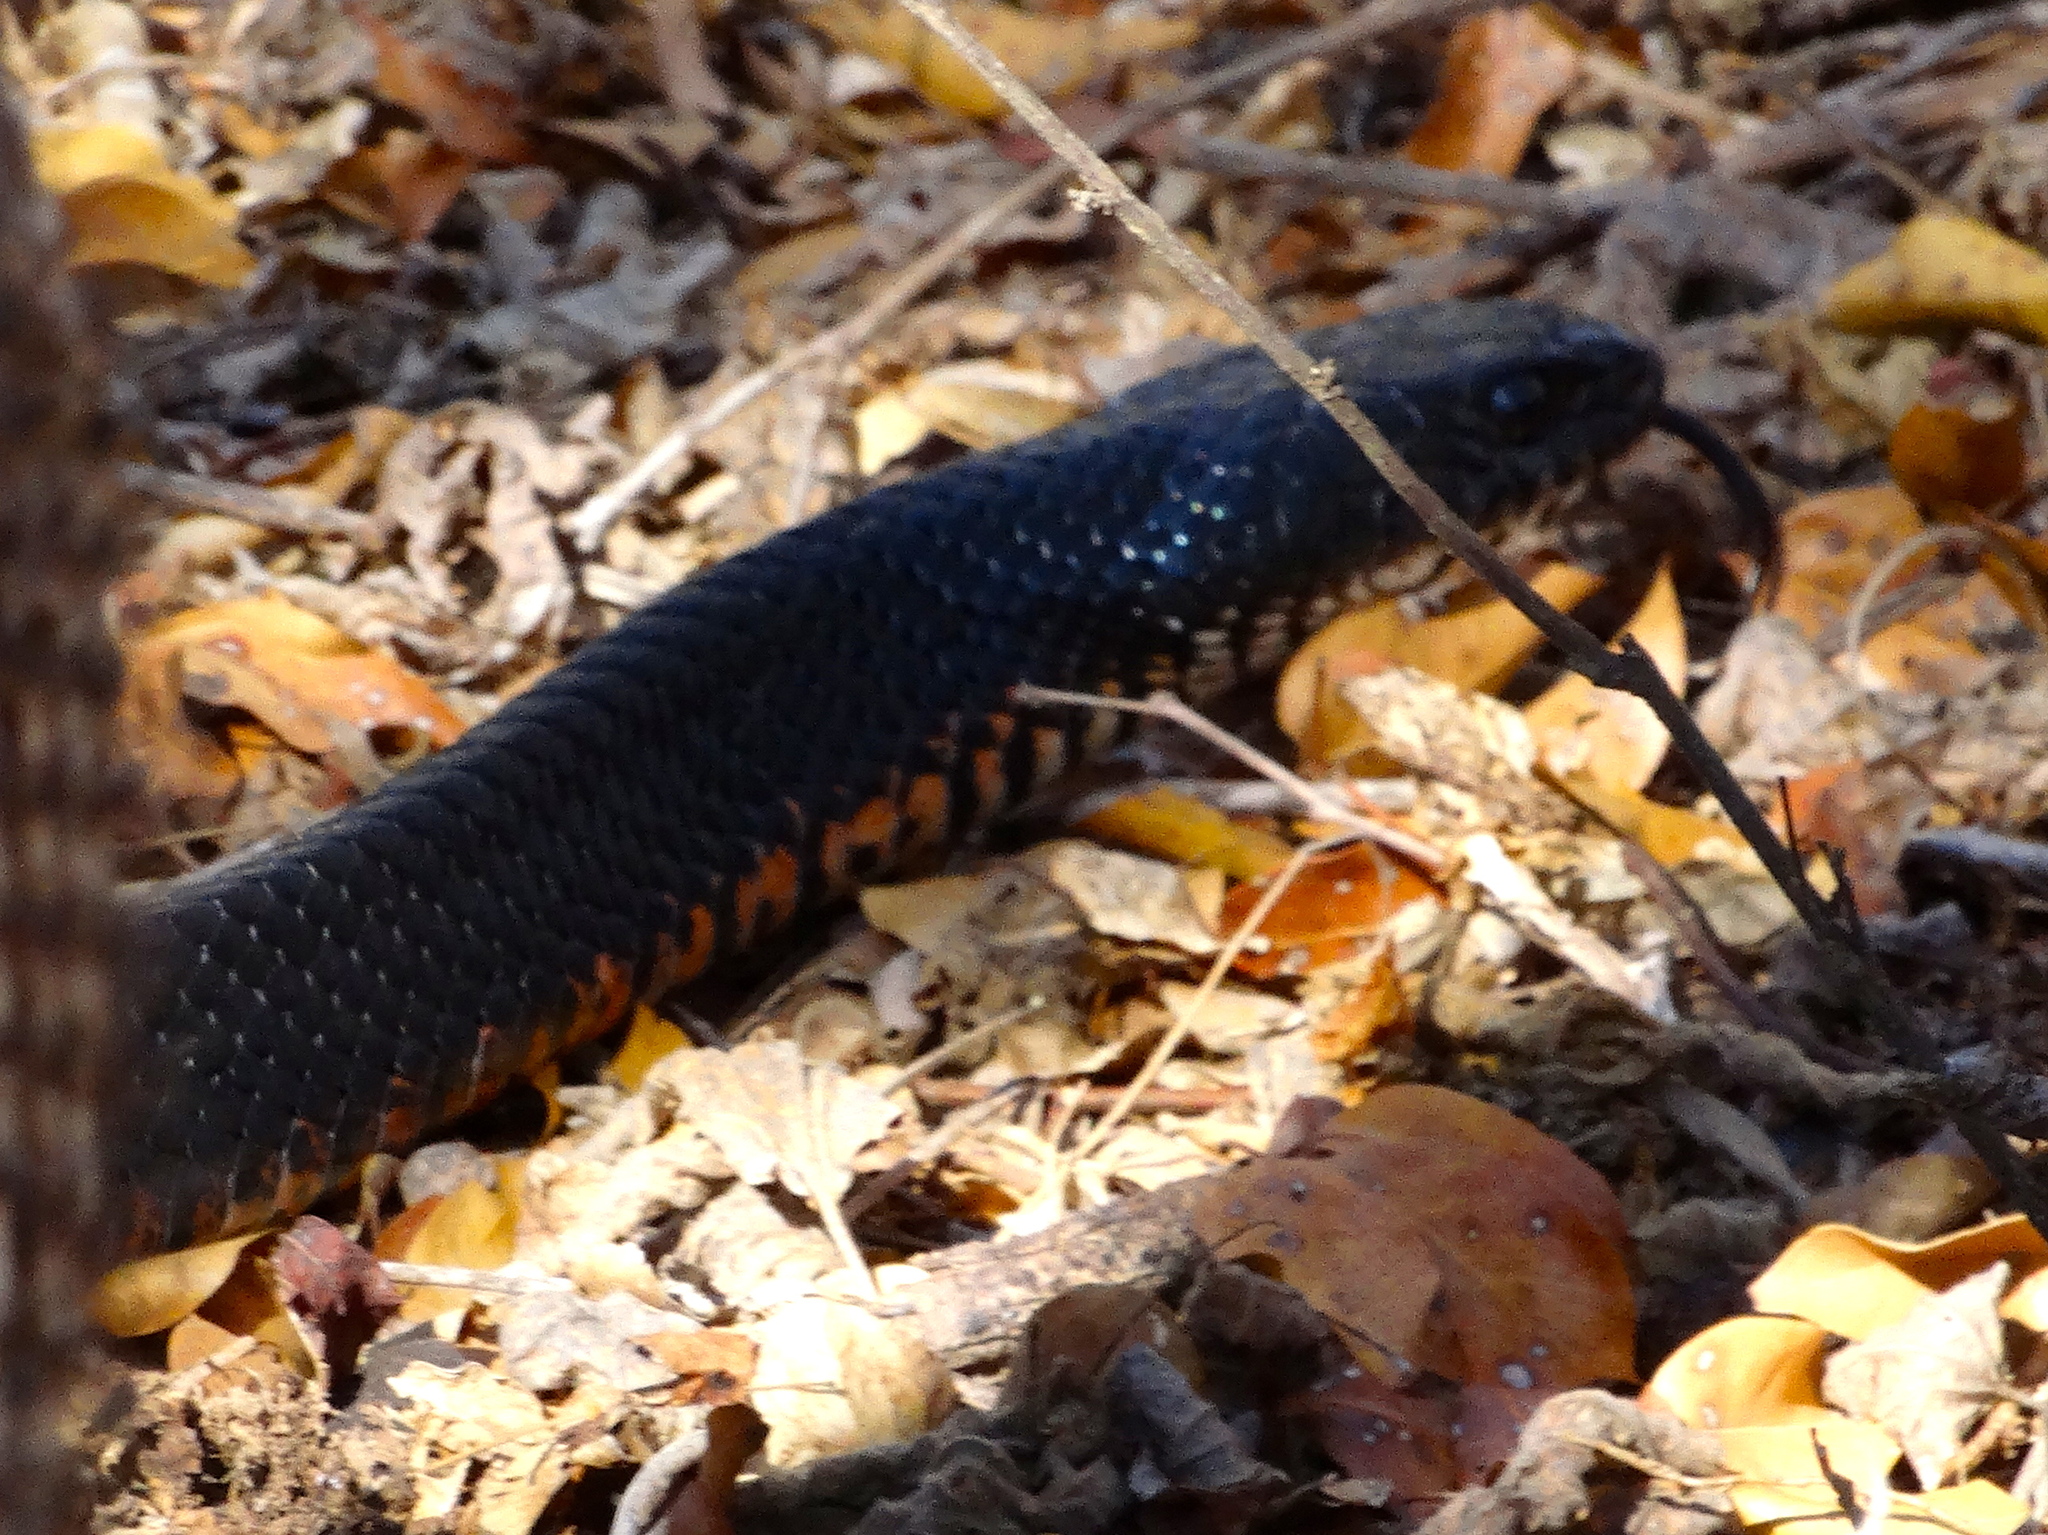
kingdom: Animalia
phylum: Chordata
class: Squamata
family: Colubridae
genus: Drymarchon
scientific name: Drymarchon melanurus
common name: Central american indigo snake
